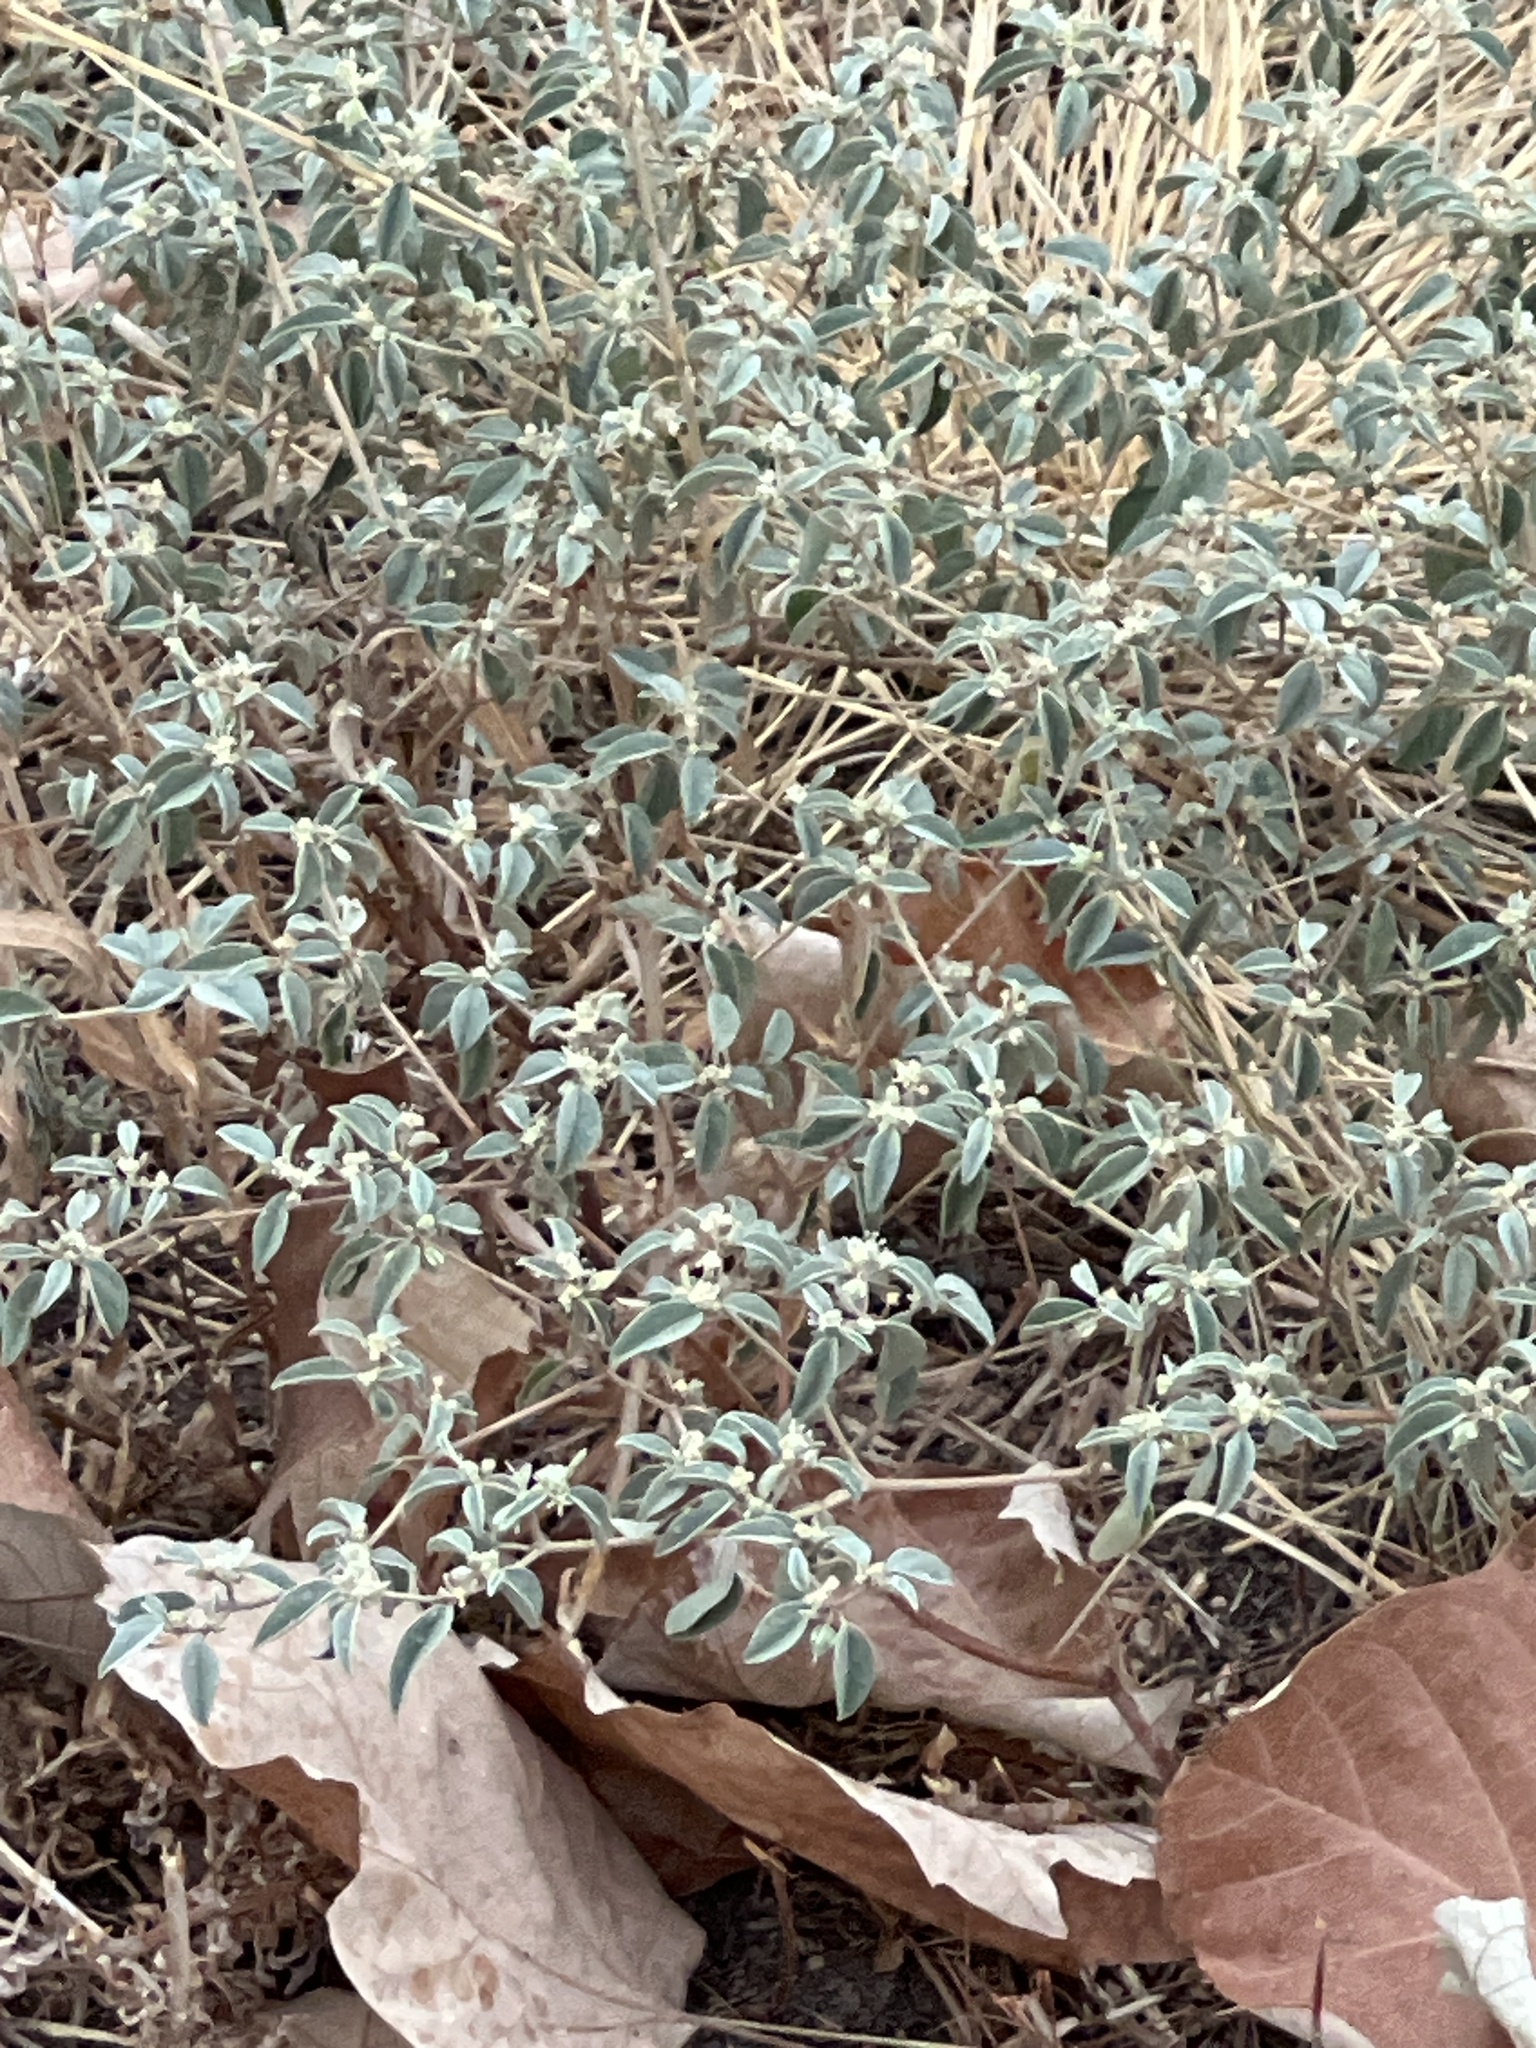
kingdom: Plantae
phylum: Tracheophyta
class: Magnoliopsida
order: Malpighiales
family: Euphorbiaceae
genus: Croton
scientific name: Croton monanthogynus
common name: One-seed croton
